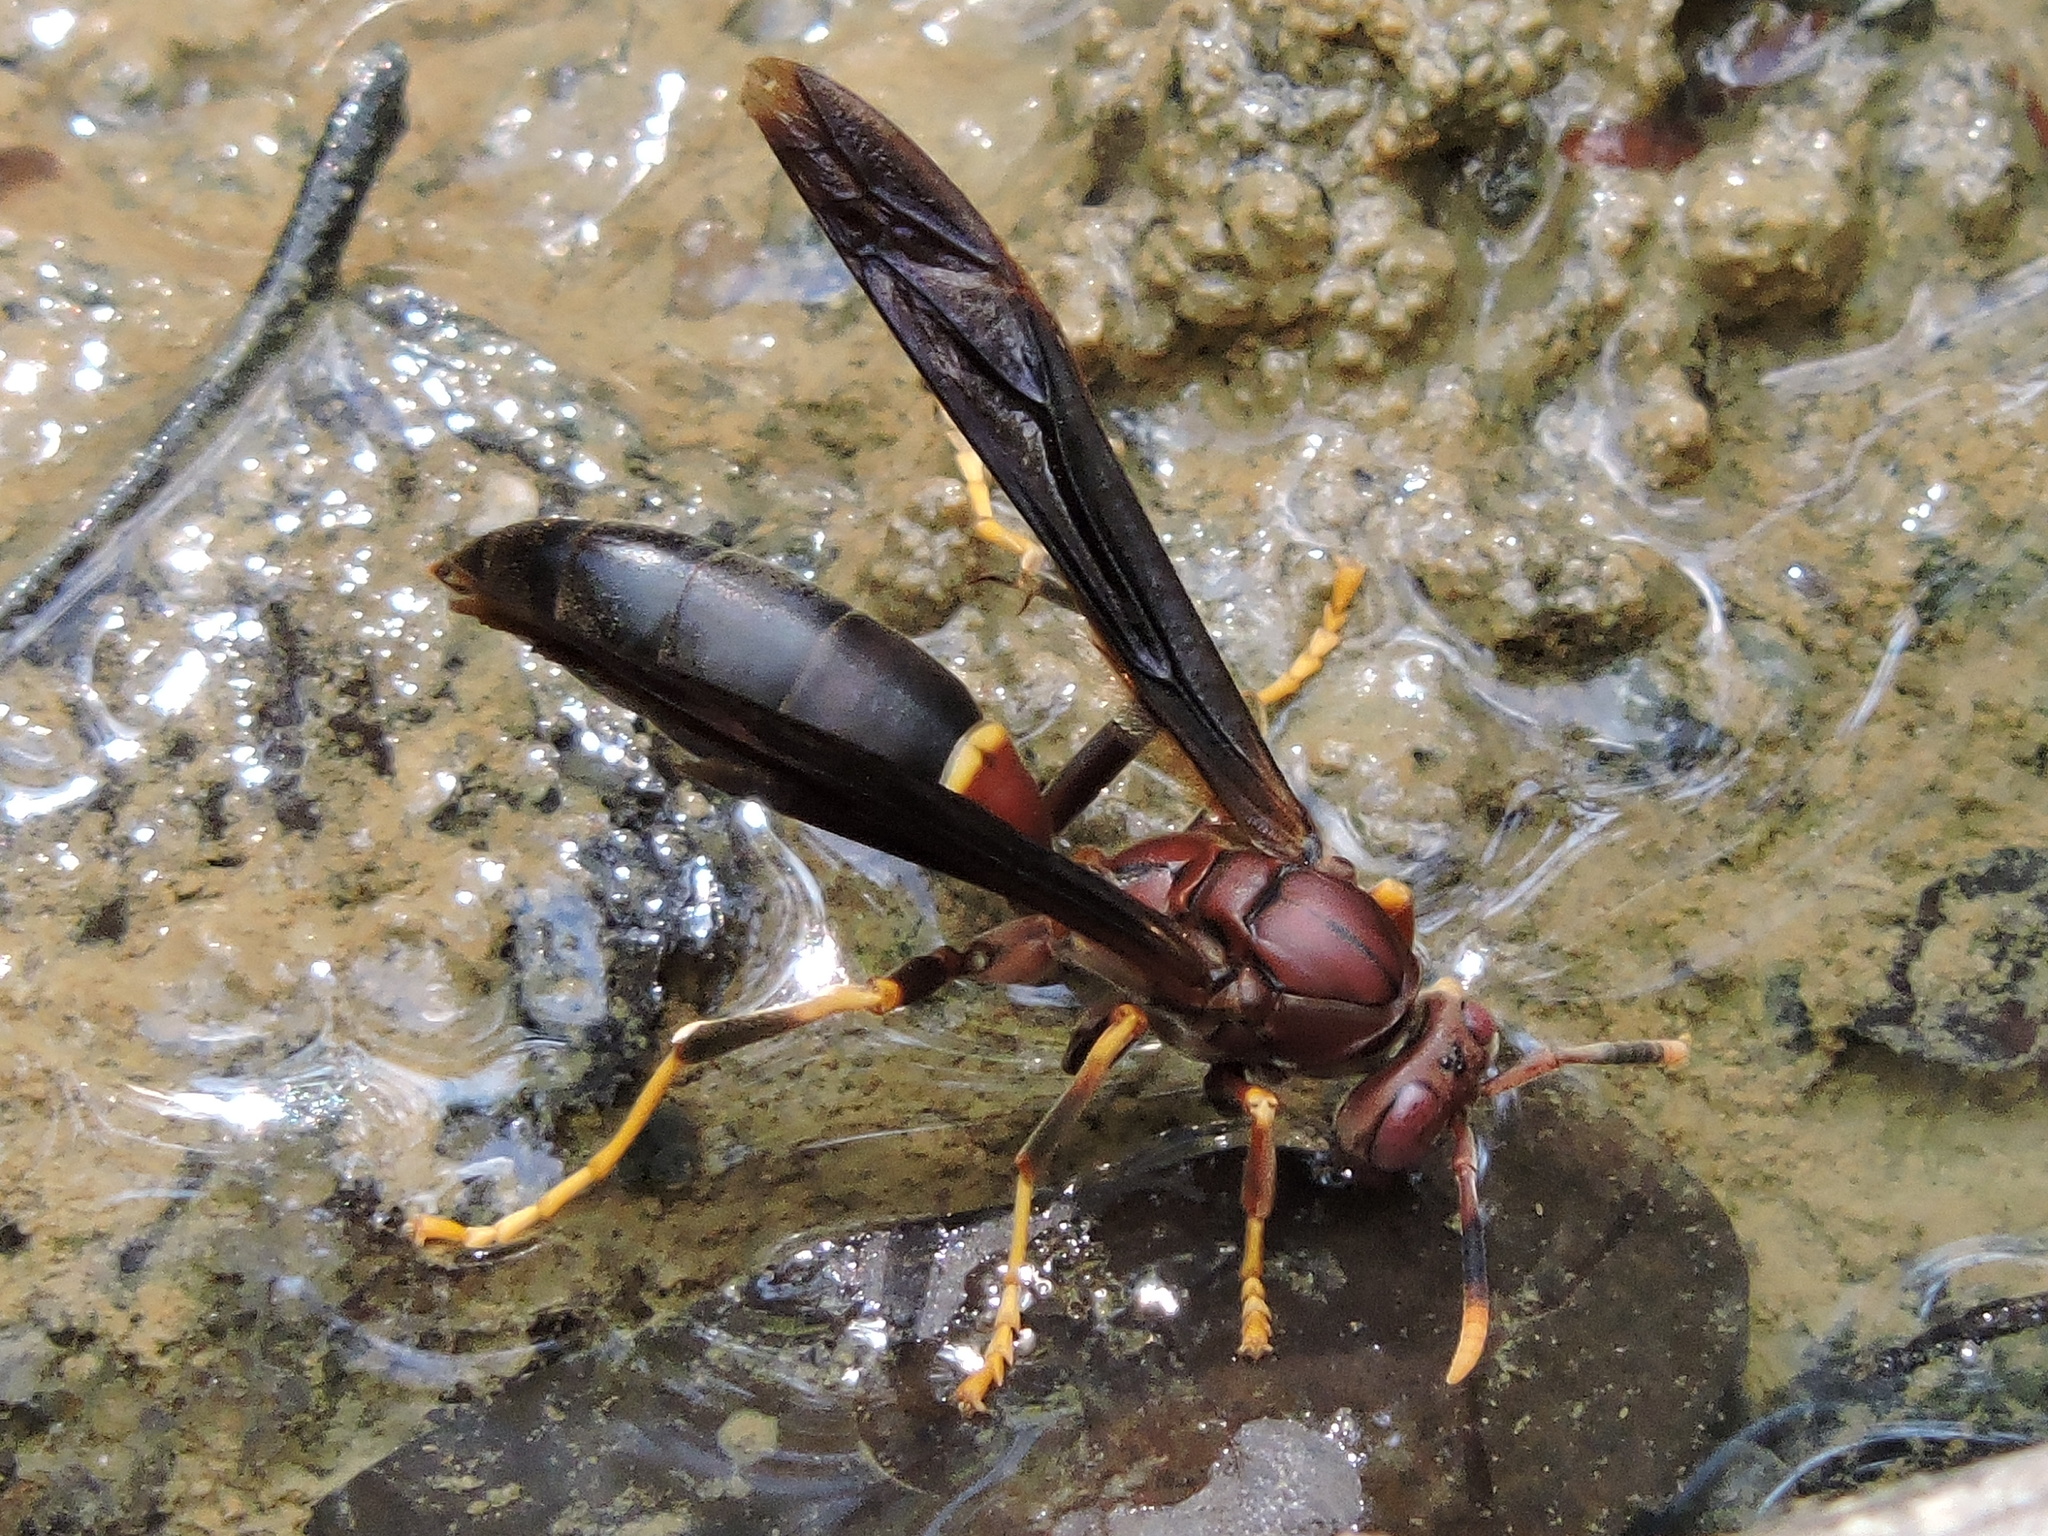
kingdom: Animalia
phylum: Arthropoda
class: Insecta
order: Hymenoptera
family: Eumenidae
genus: Polistes
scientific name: Polistes annularis
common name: Ringed paper wasp
